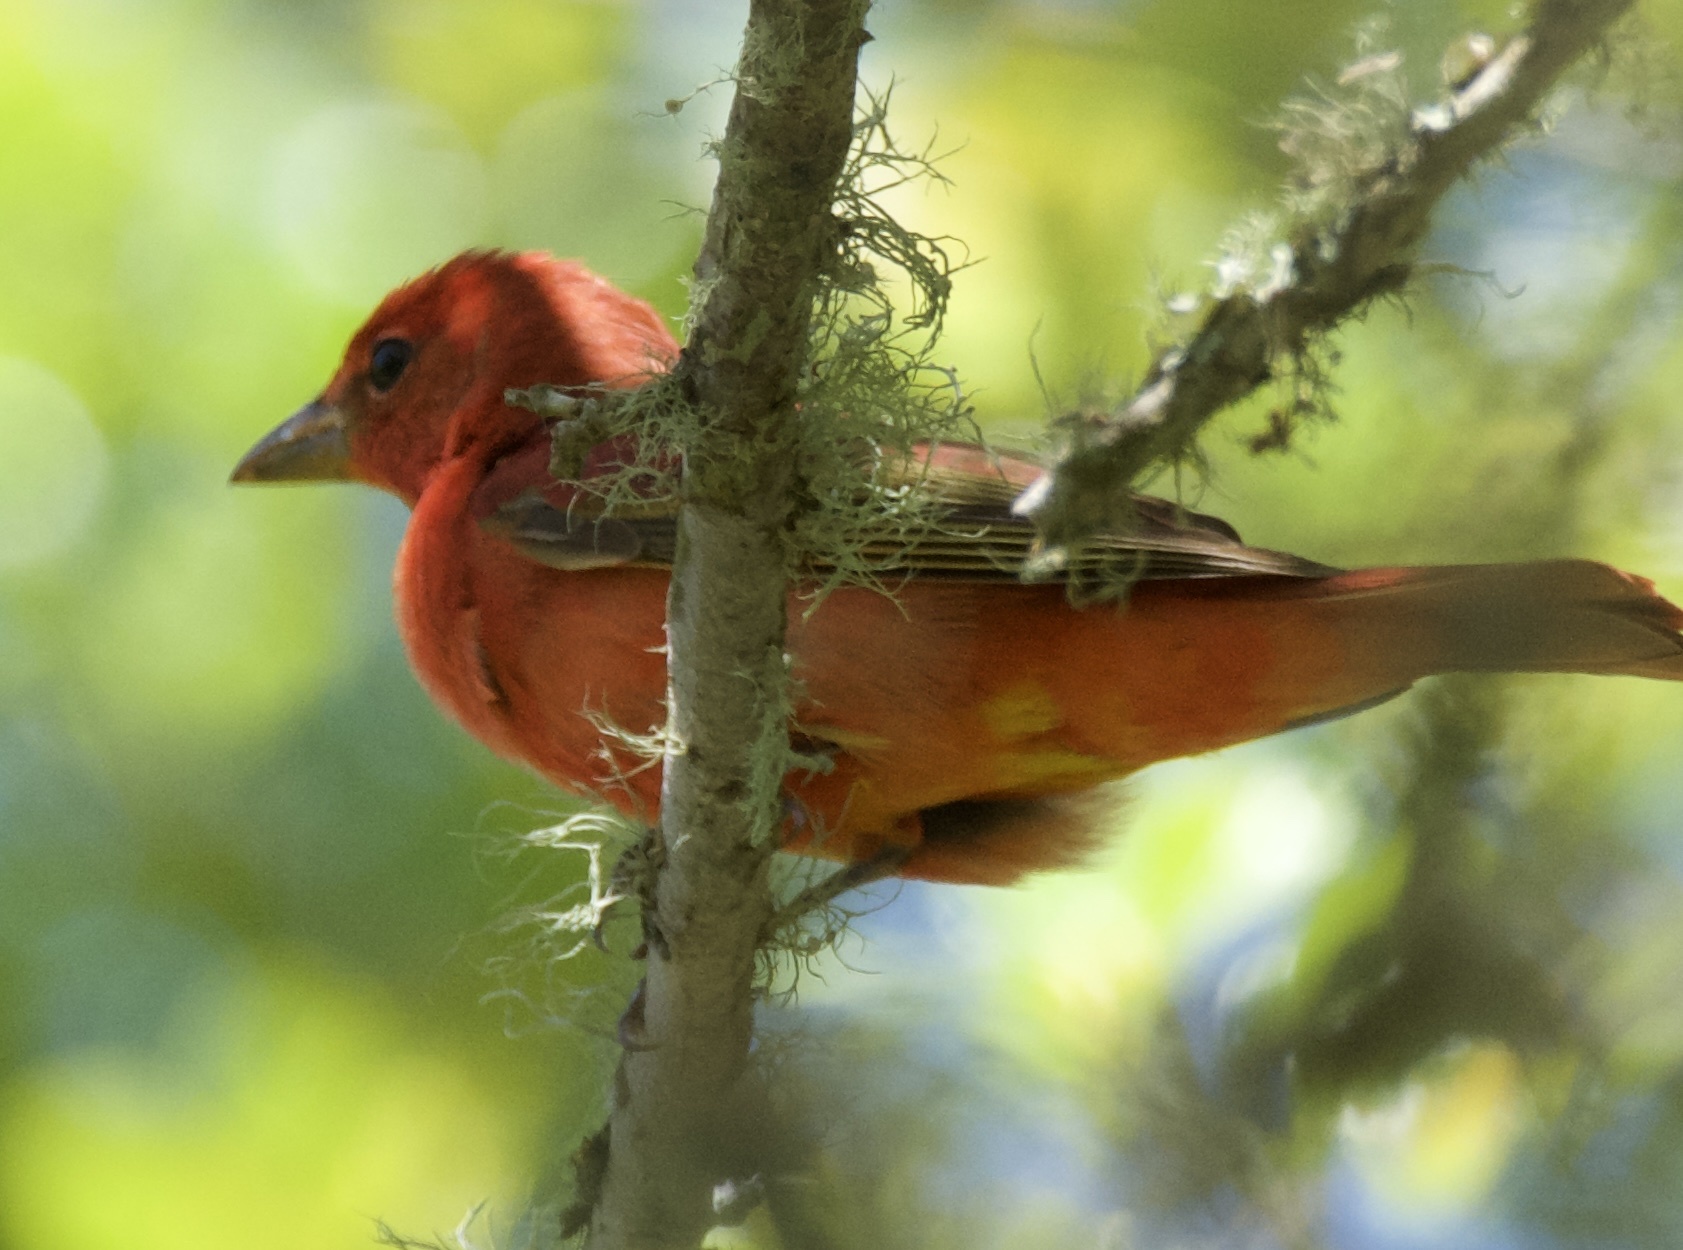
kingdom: Animalia
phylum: Chordata
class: Aves
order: Passeriformes
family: Cardinalidae
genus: Piranga
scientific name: Piranga rubra
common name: Summer tanager
